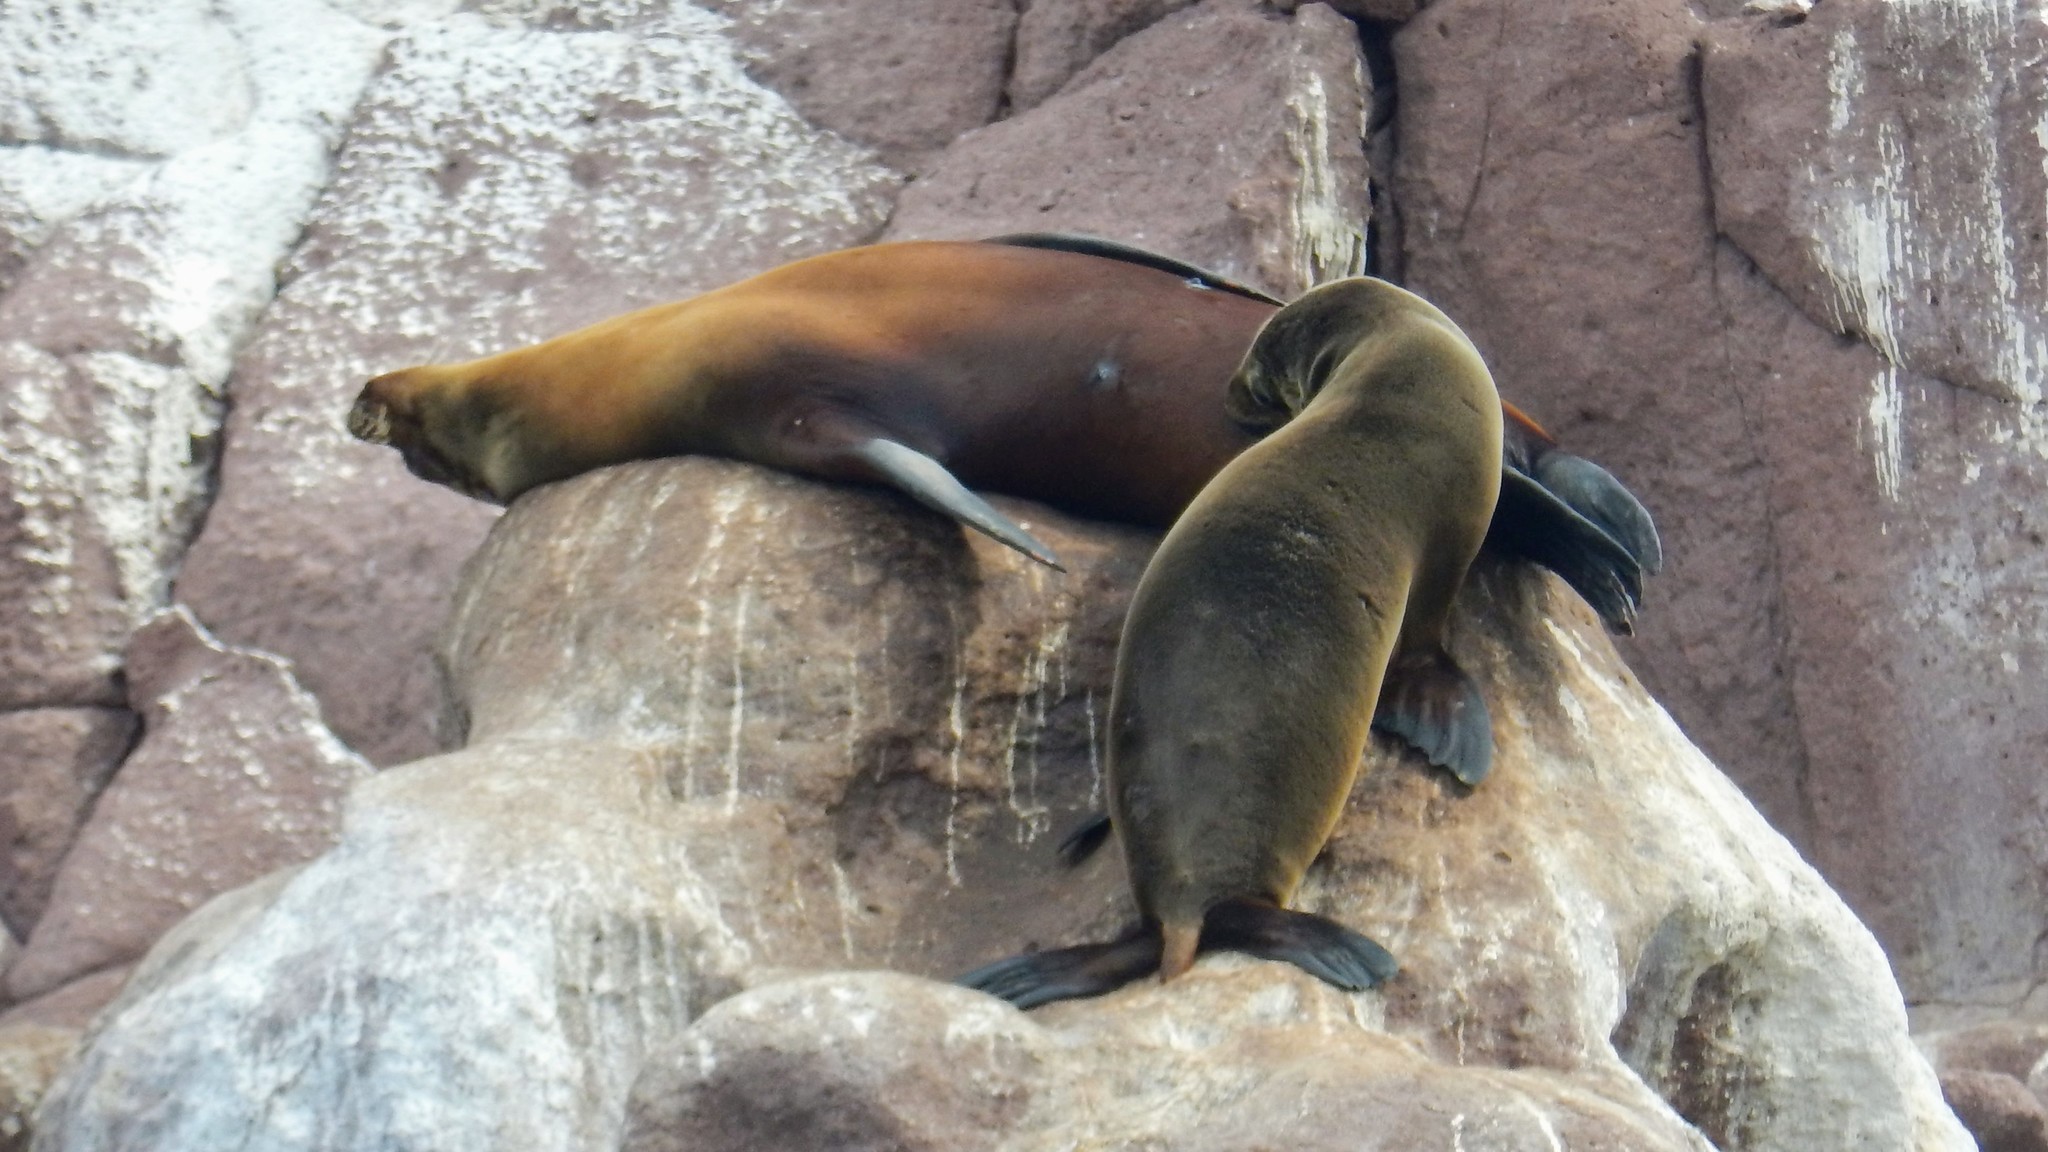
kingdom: Animalia
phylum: Chordata
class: Mammalia
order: Carnivora
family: Otariidae
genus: Zalophus
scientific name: Zalophus californianus
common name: California sea lion
